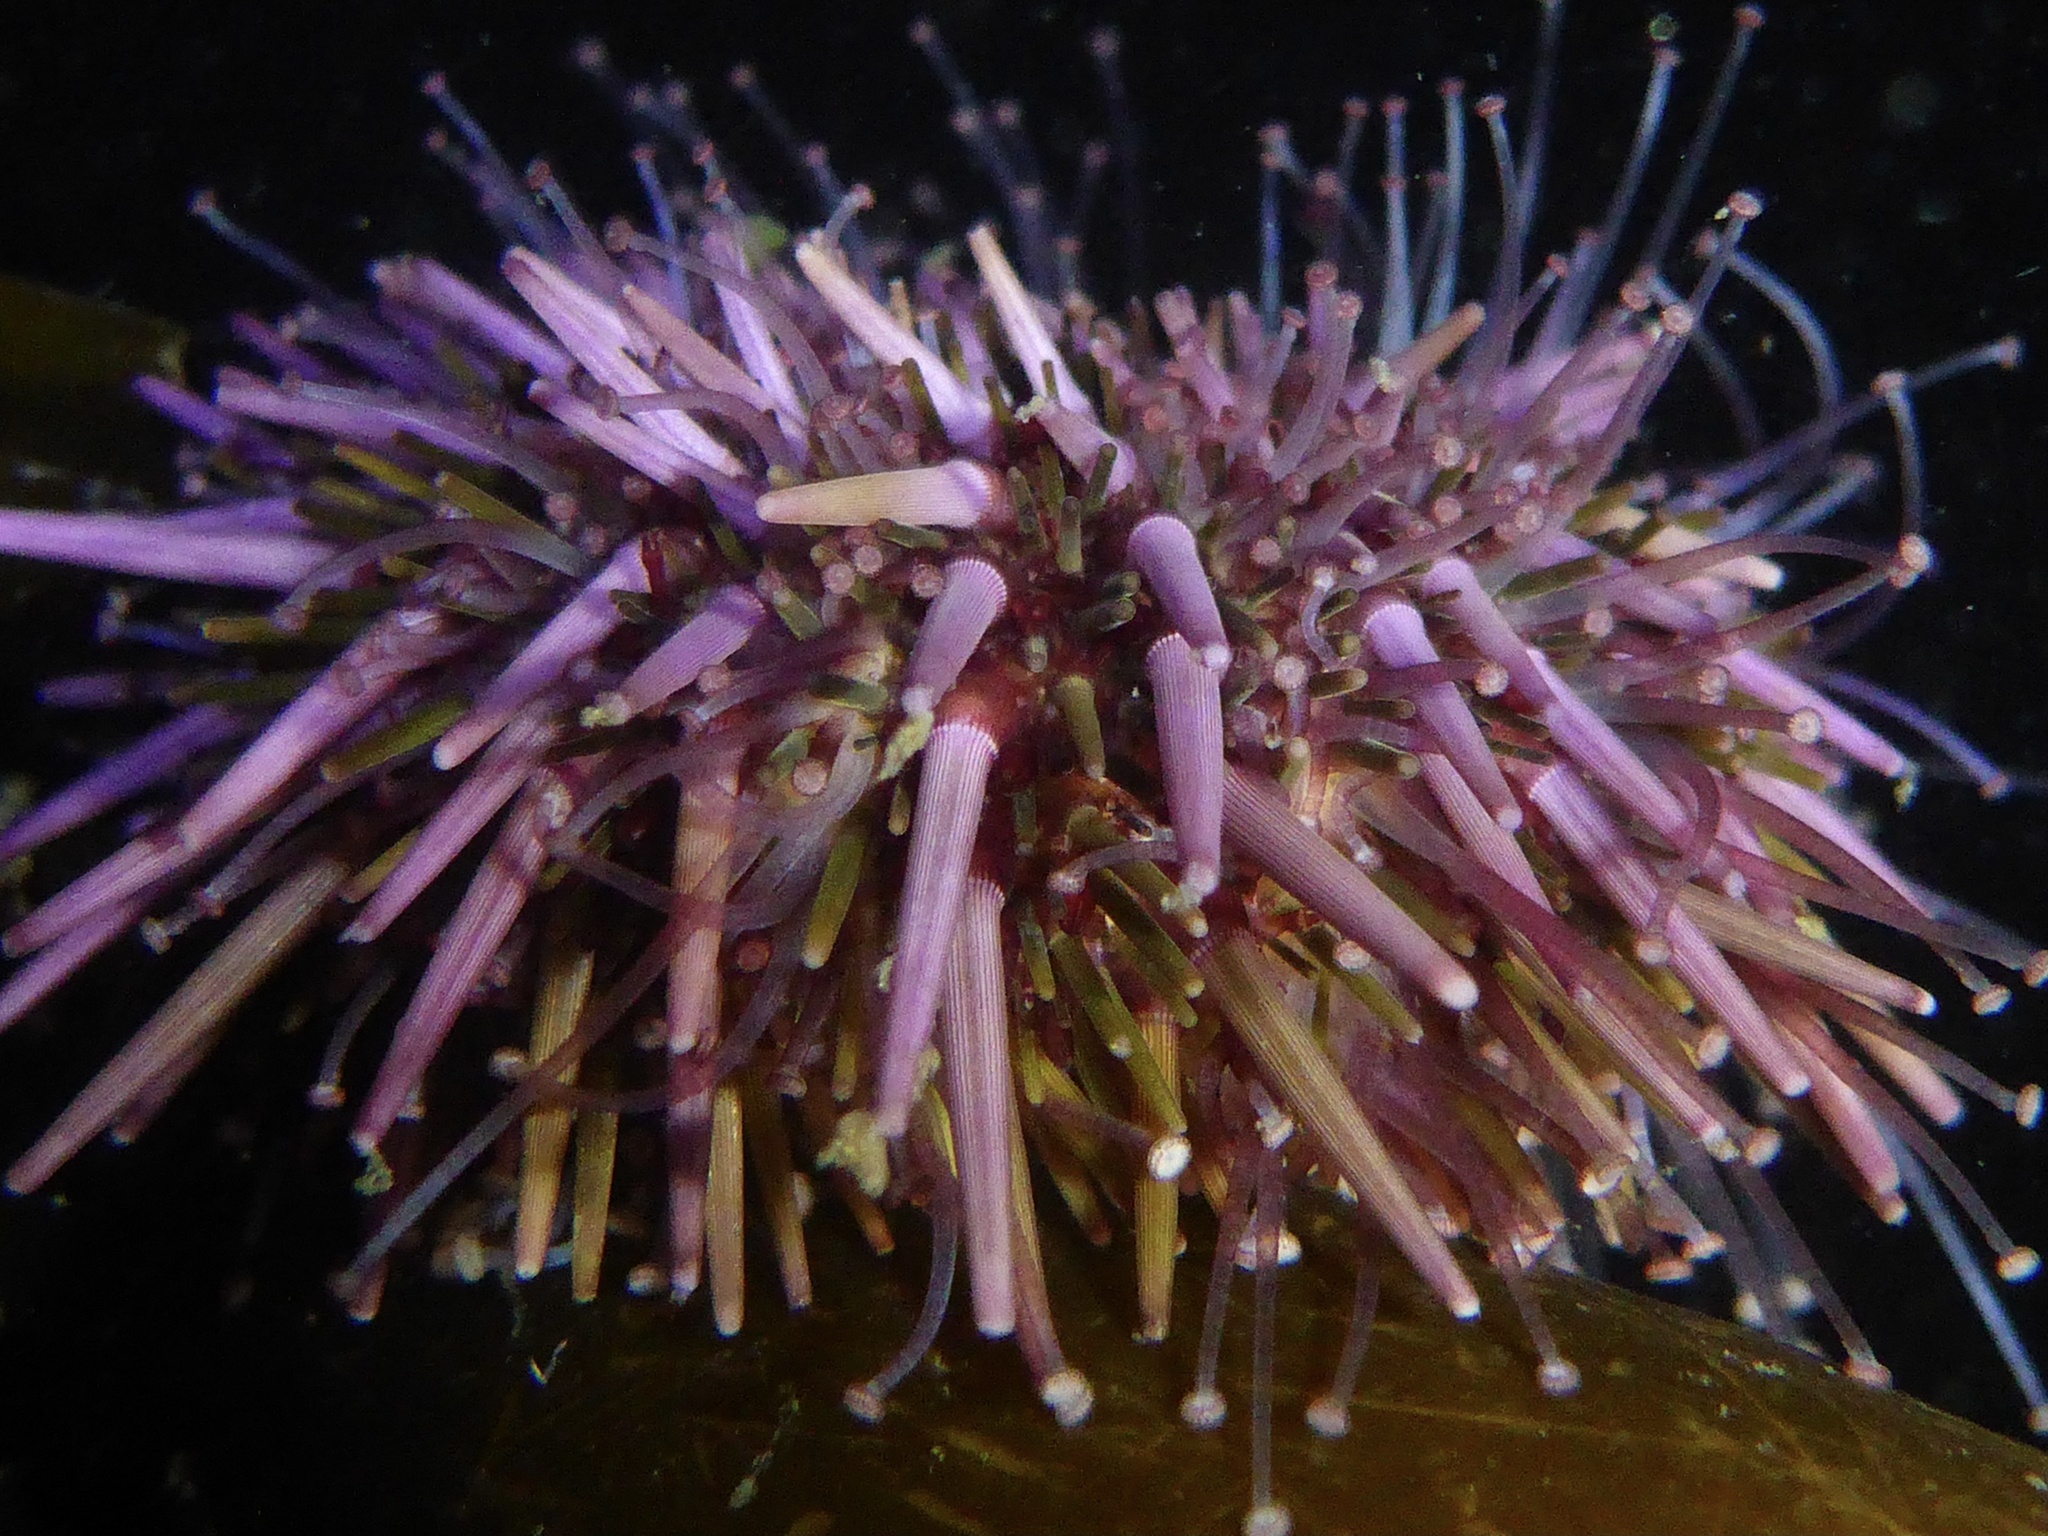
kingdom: Animalia
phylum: Echinodermata
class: Echinoidea
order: Camarodonta
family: Strongylocentrotidae
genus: Strongylocentrotus
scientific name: Strongylocentrotus purpuratus
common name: Purple sea urchin
